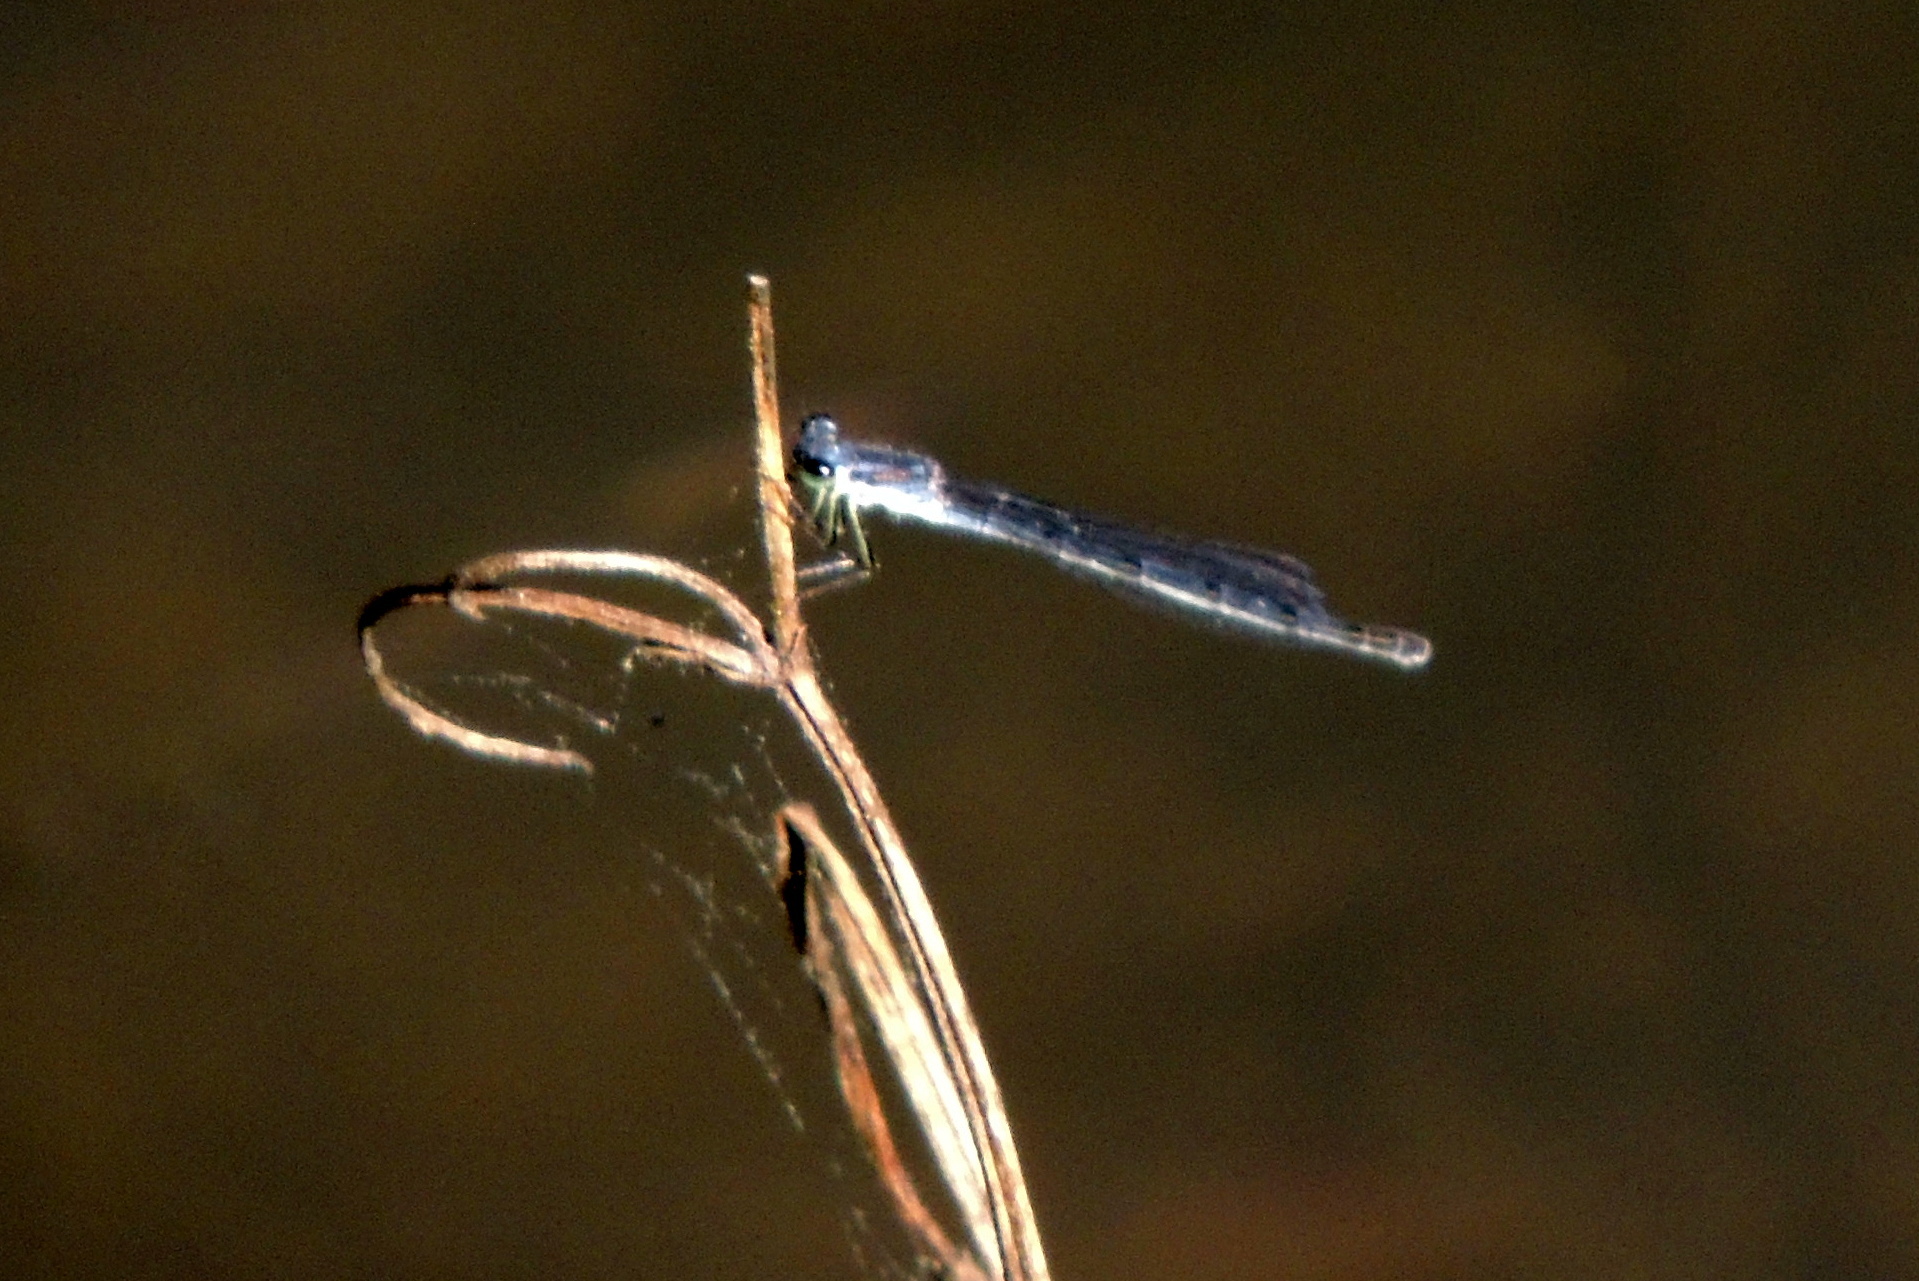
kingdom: Animalia
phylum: Arthropoda
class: Insecta
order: Odonata
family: Coenagrionidae
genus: Ischnura
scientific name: Ischnura posita
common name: Fragile forktail
